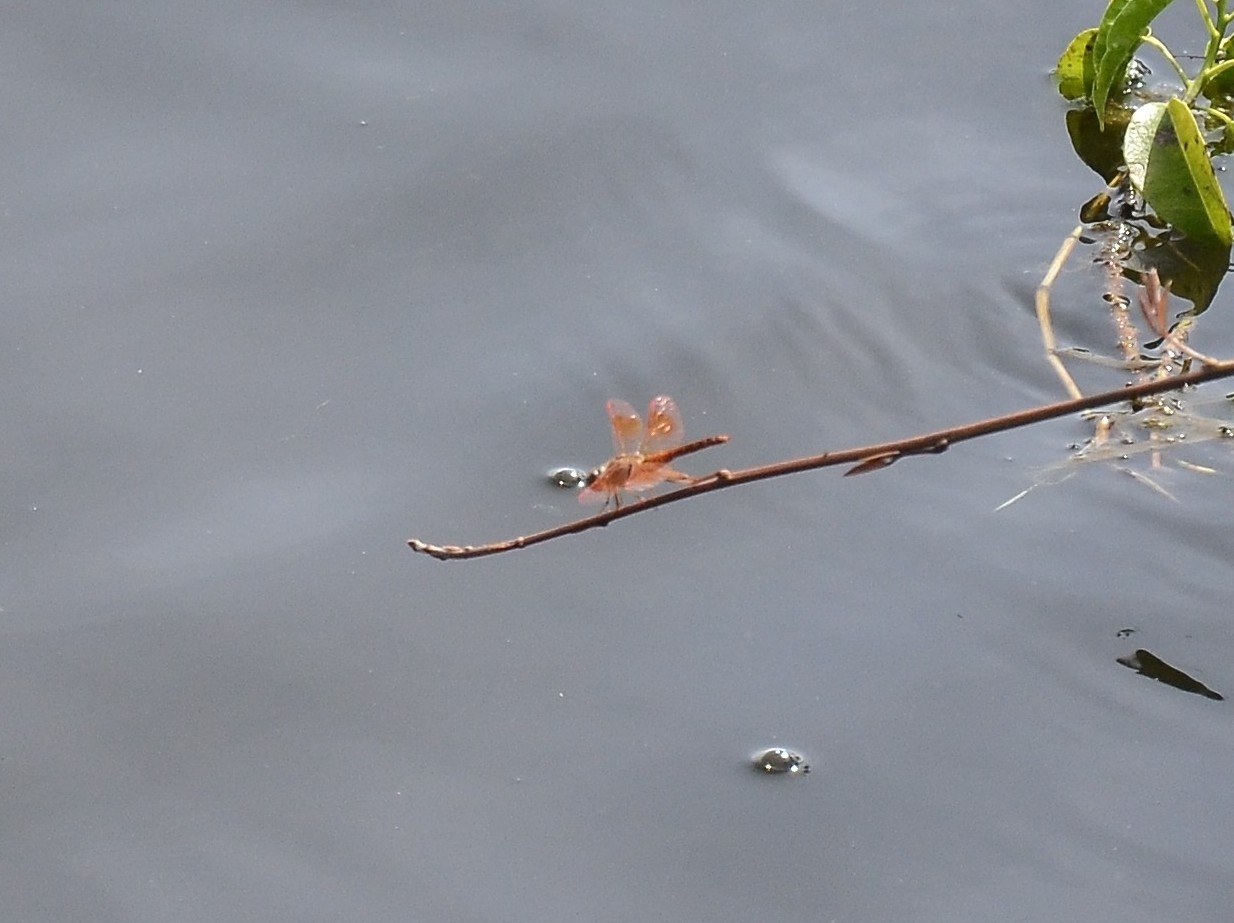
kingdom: Animalia
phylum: Arthropoda
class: Insecta
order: Odonata
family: Libellulidae
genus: Brachythemis
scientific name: Brachythemis contaminata
